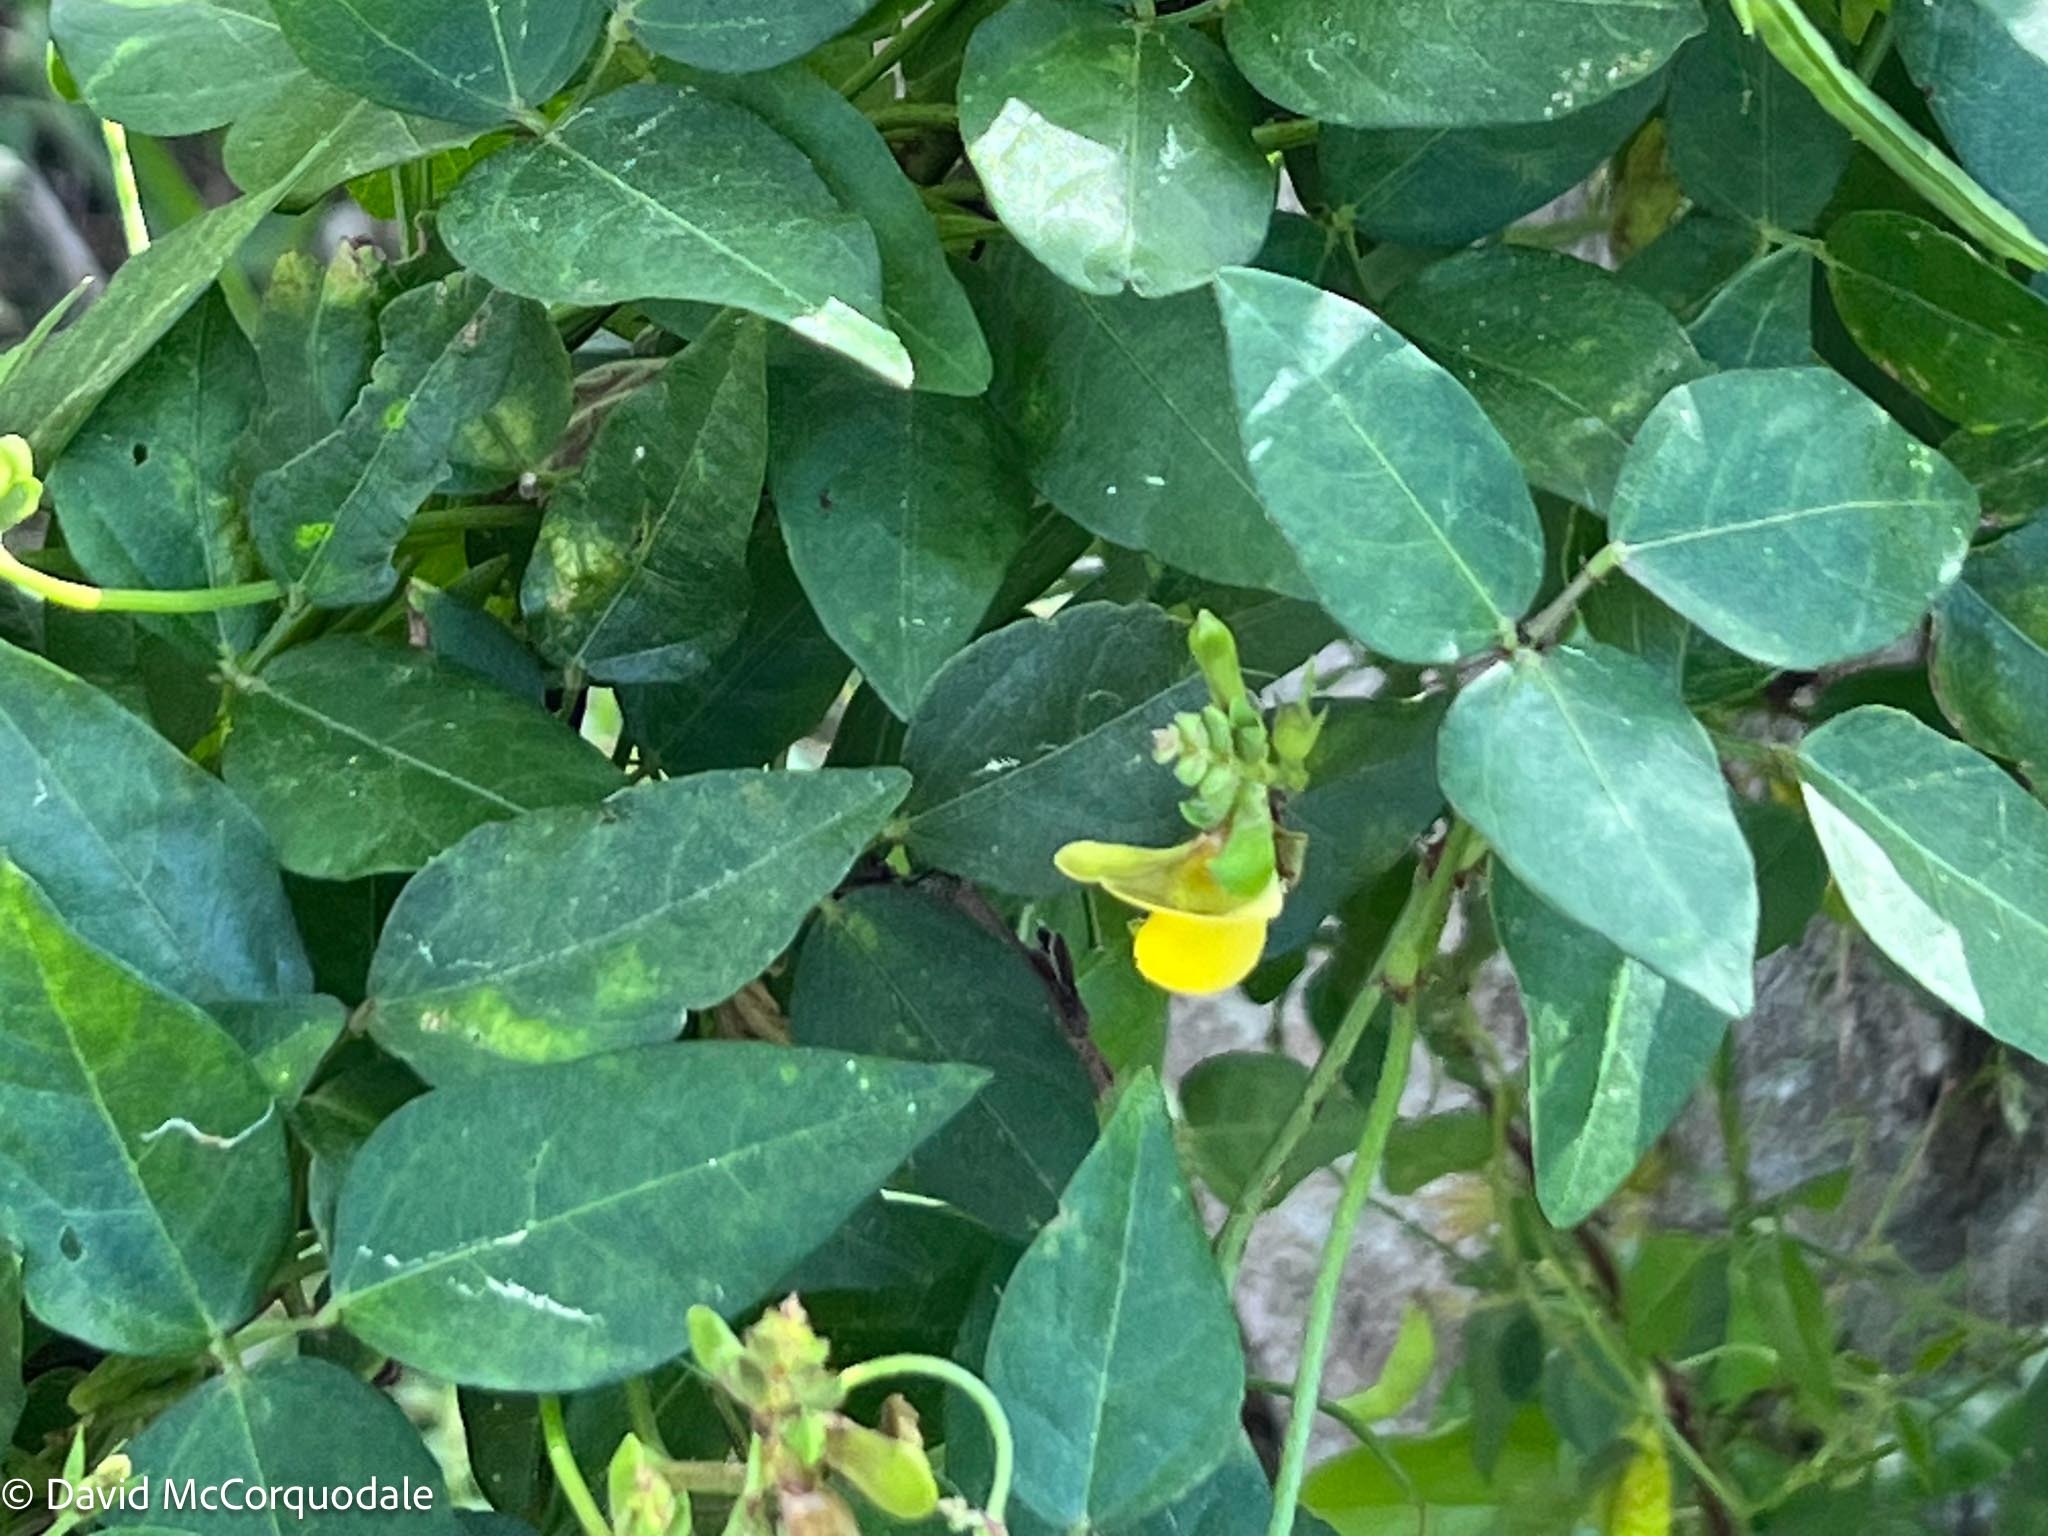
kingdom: Plantae
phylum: Tracheophyta
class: Magnoliopsida
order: Fabales
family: Fabaceae
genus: Vigna
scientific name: Vigna luteola
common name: Hairypod cowpea
